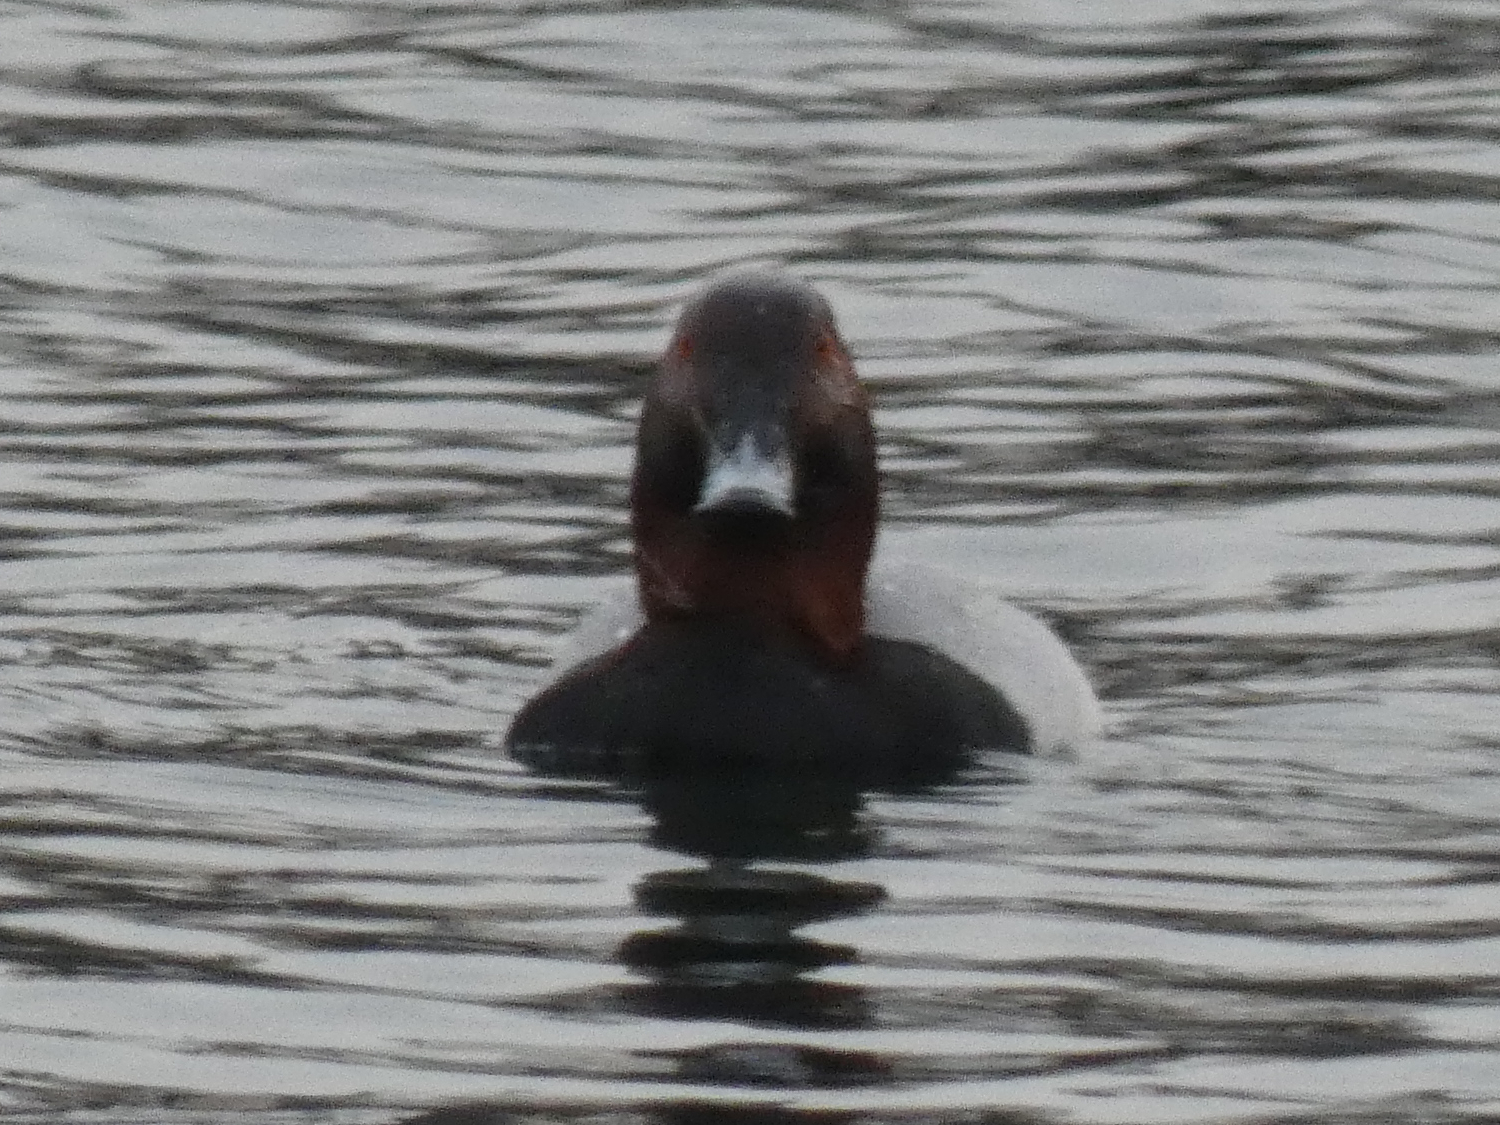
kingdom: Animalia
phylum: Chordata
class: Aves
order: Anseriformes
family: Anatidae
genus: Aythya
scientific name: Aythya ferina
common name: Common pochard
